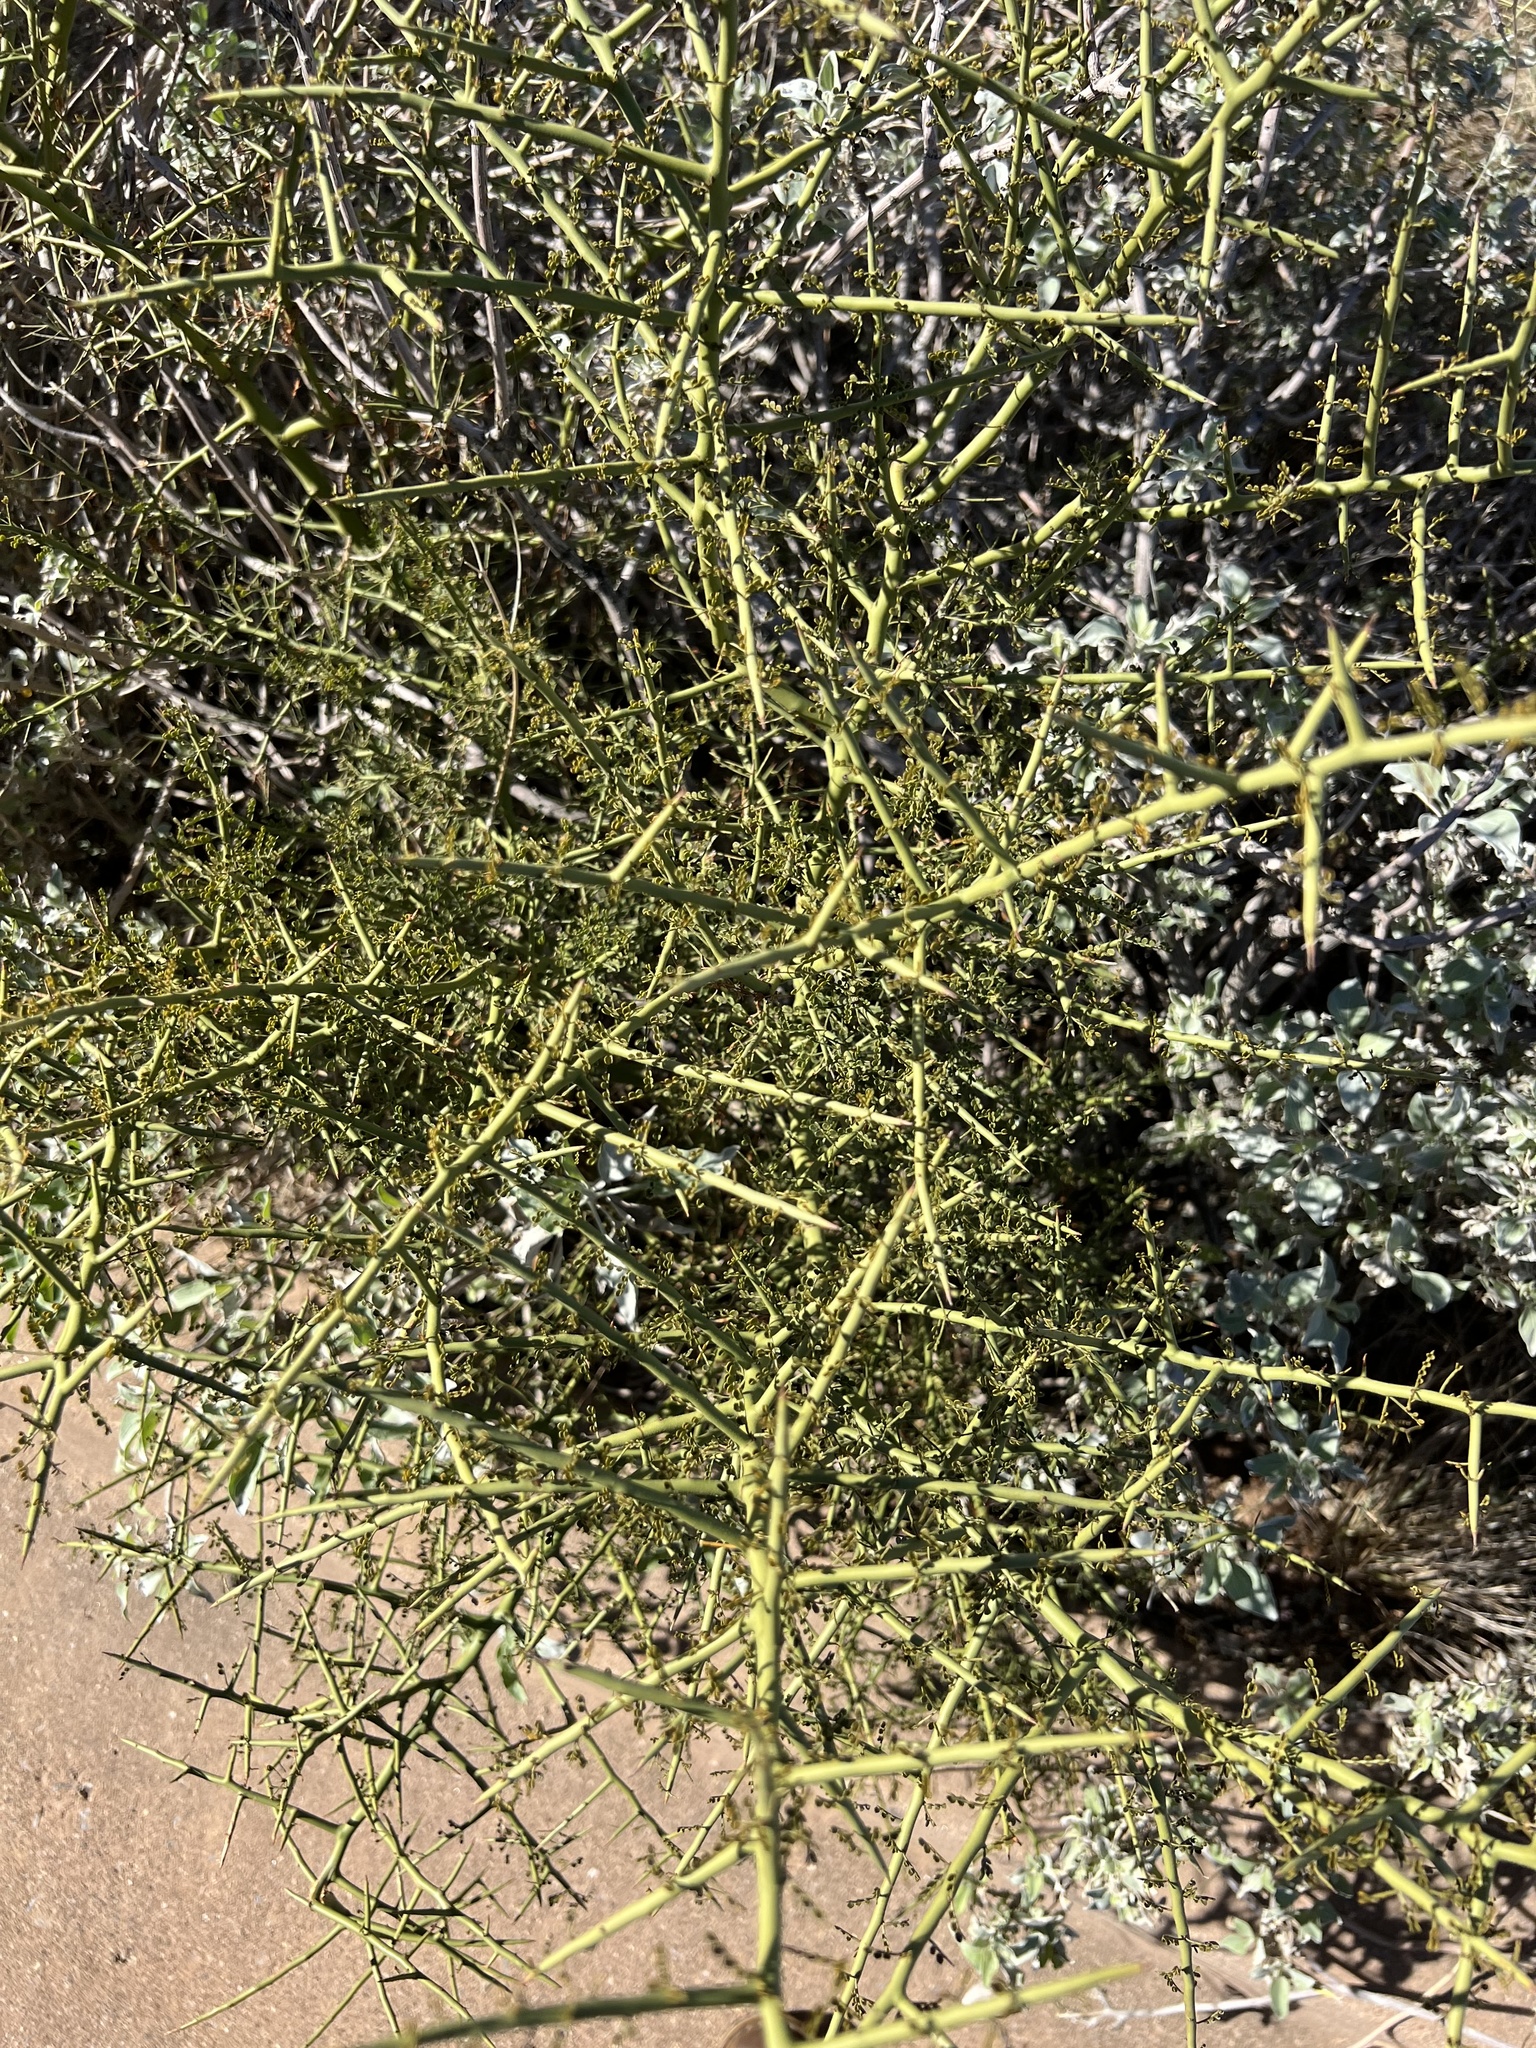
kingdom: Plantae
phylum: Tracheophyta
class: Magnoliopsida
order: Fabales
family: Fabaceae
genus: Parkinsonia
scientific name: Parkinsonia microphylla
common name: Yellow paloverde
